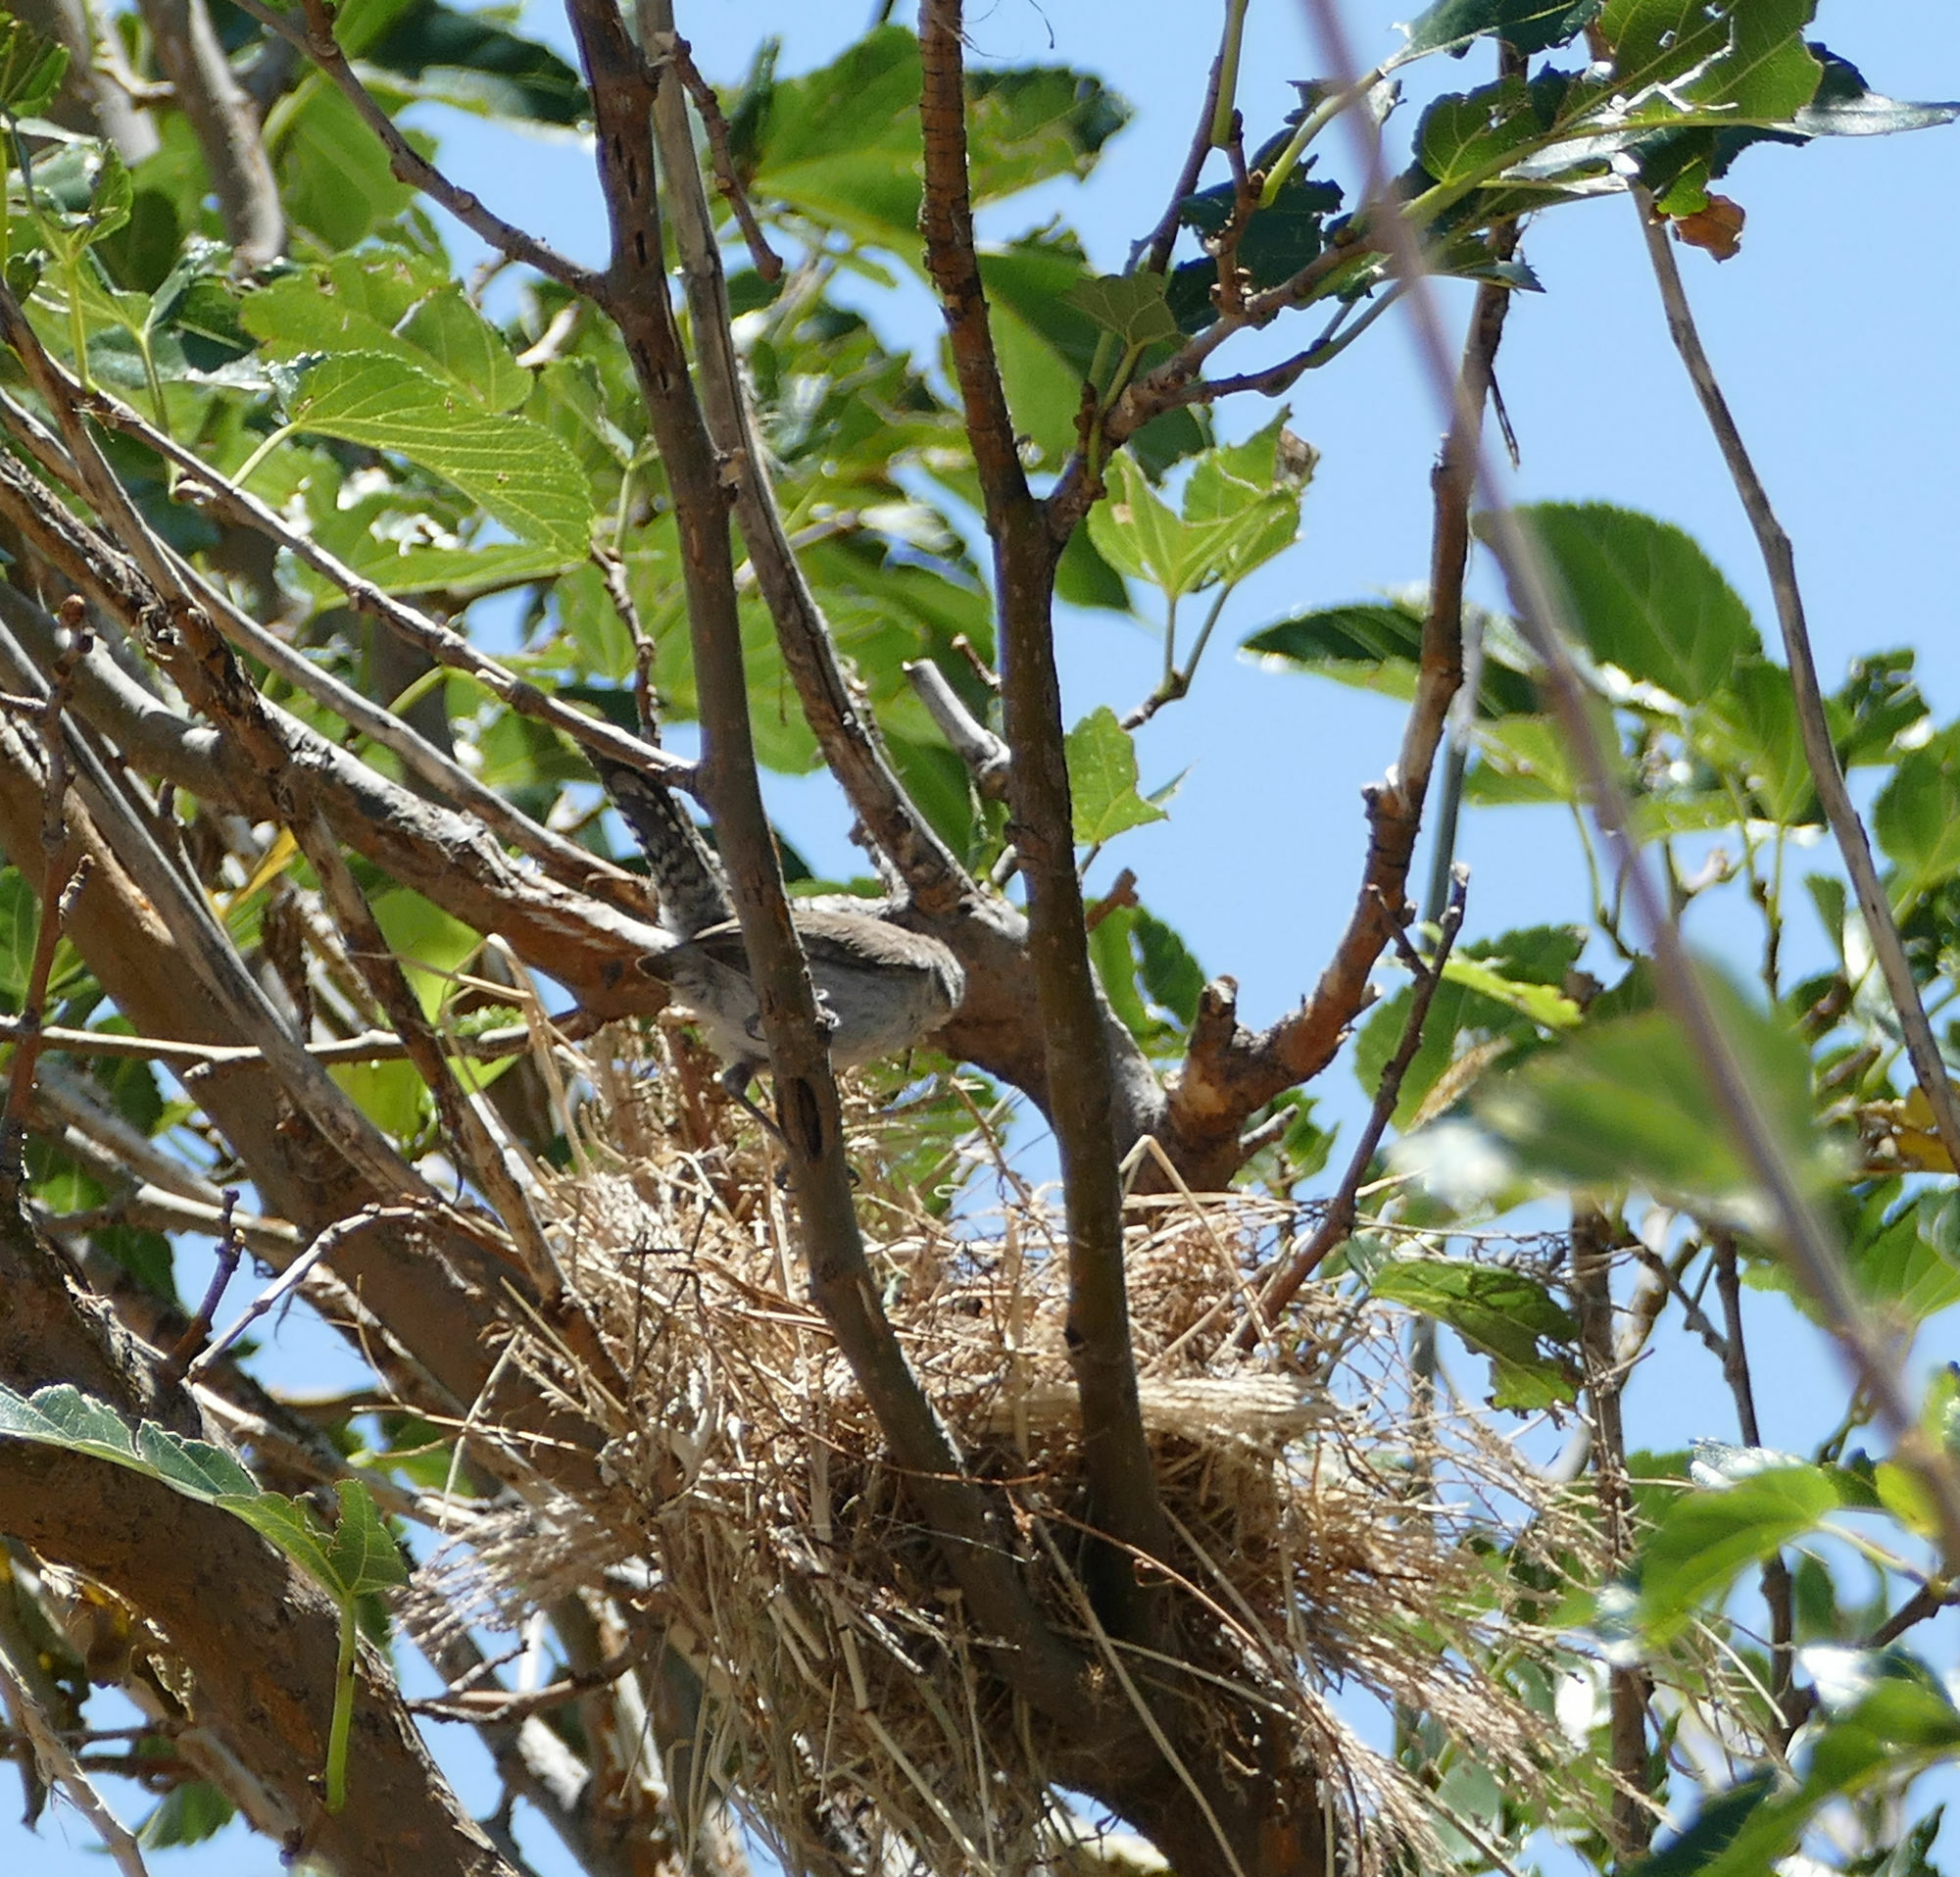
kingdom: Animalia
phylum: Chordata
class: Aves
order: Passeriformes
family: Troglodytidae
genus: Thryomanes
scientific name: Thryomanes bewickii
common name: Bewick's wren
